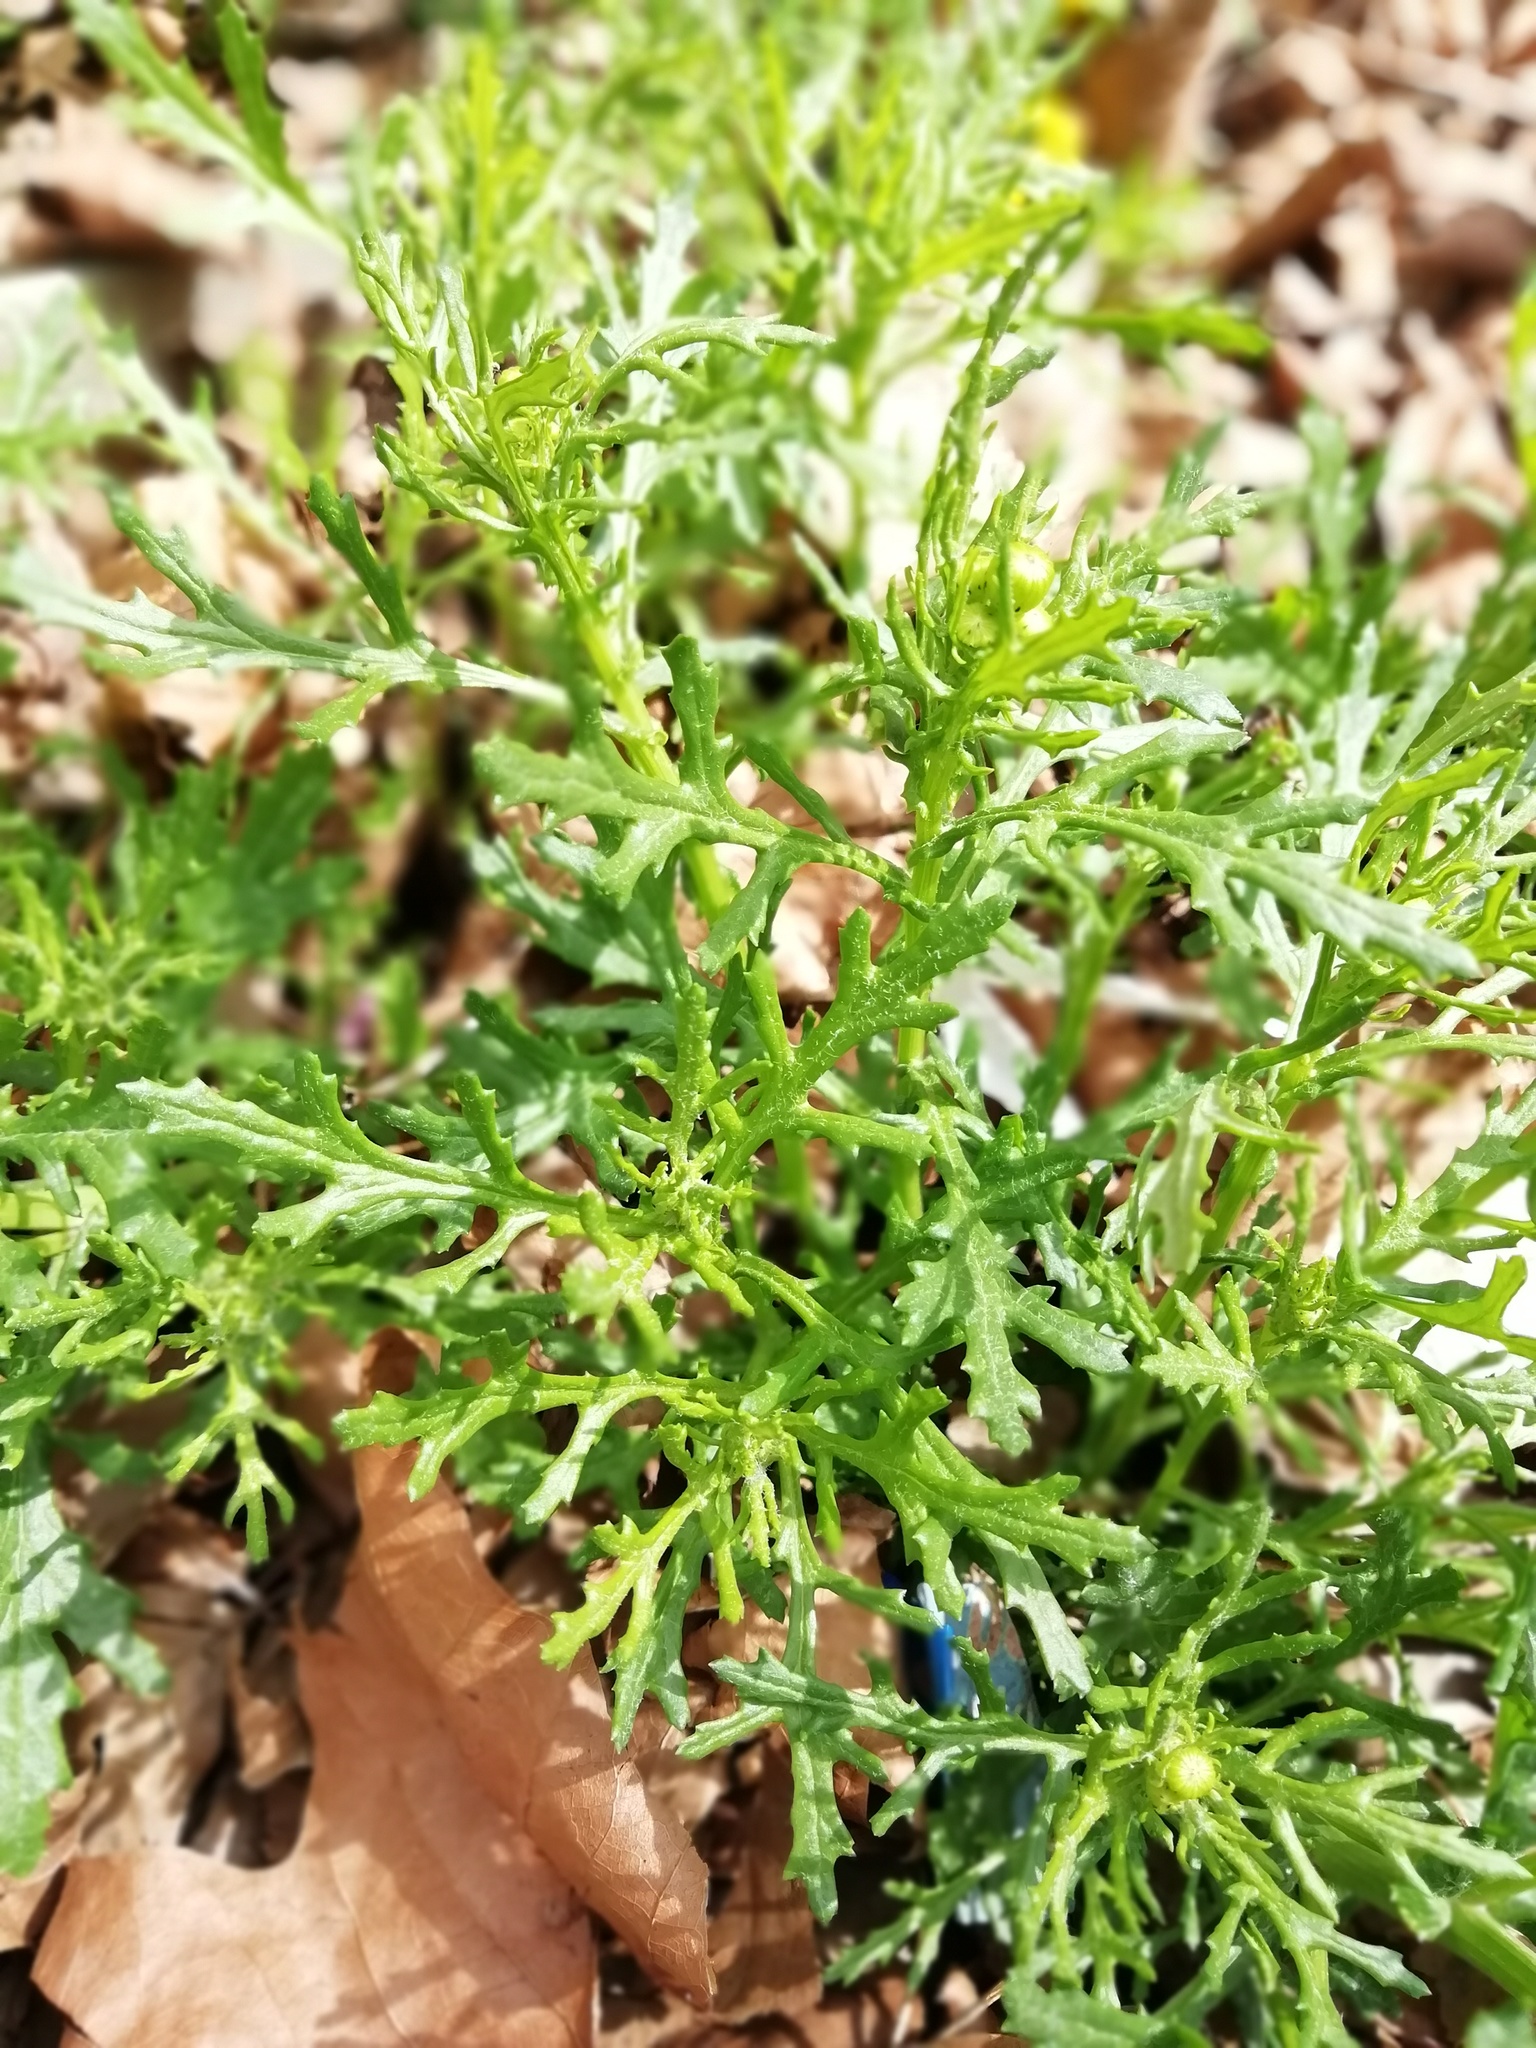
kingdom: Plantae
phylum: Tracheophyta
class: Magnoliopsida
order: Asterales
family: Asteraceae
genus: Senecio
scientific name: Senecio squalidus
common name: Oxford ragwort
